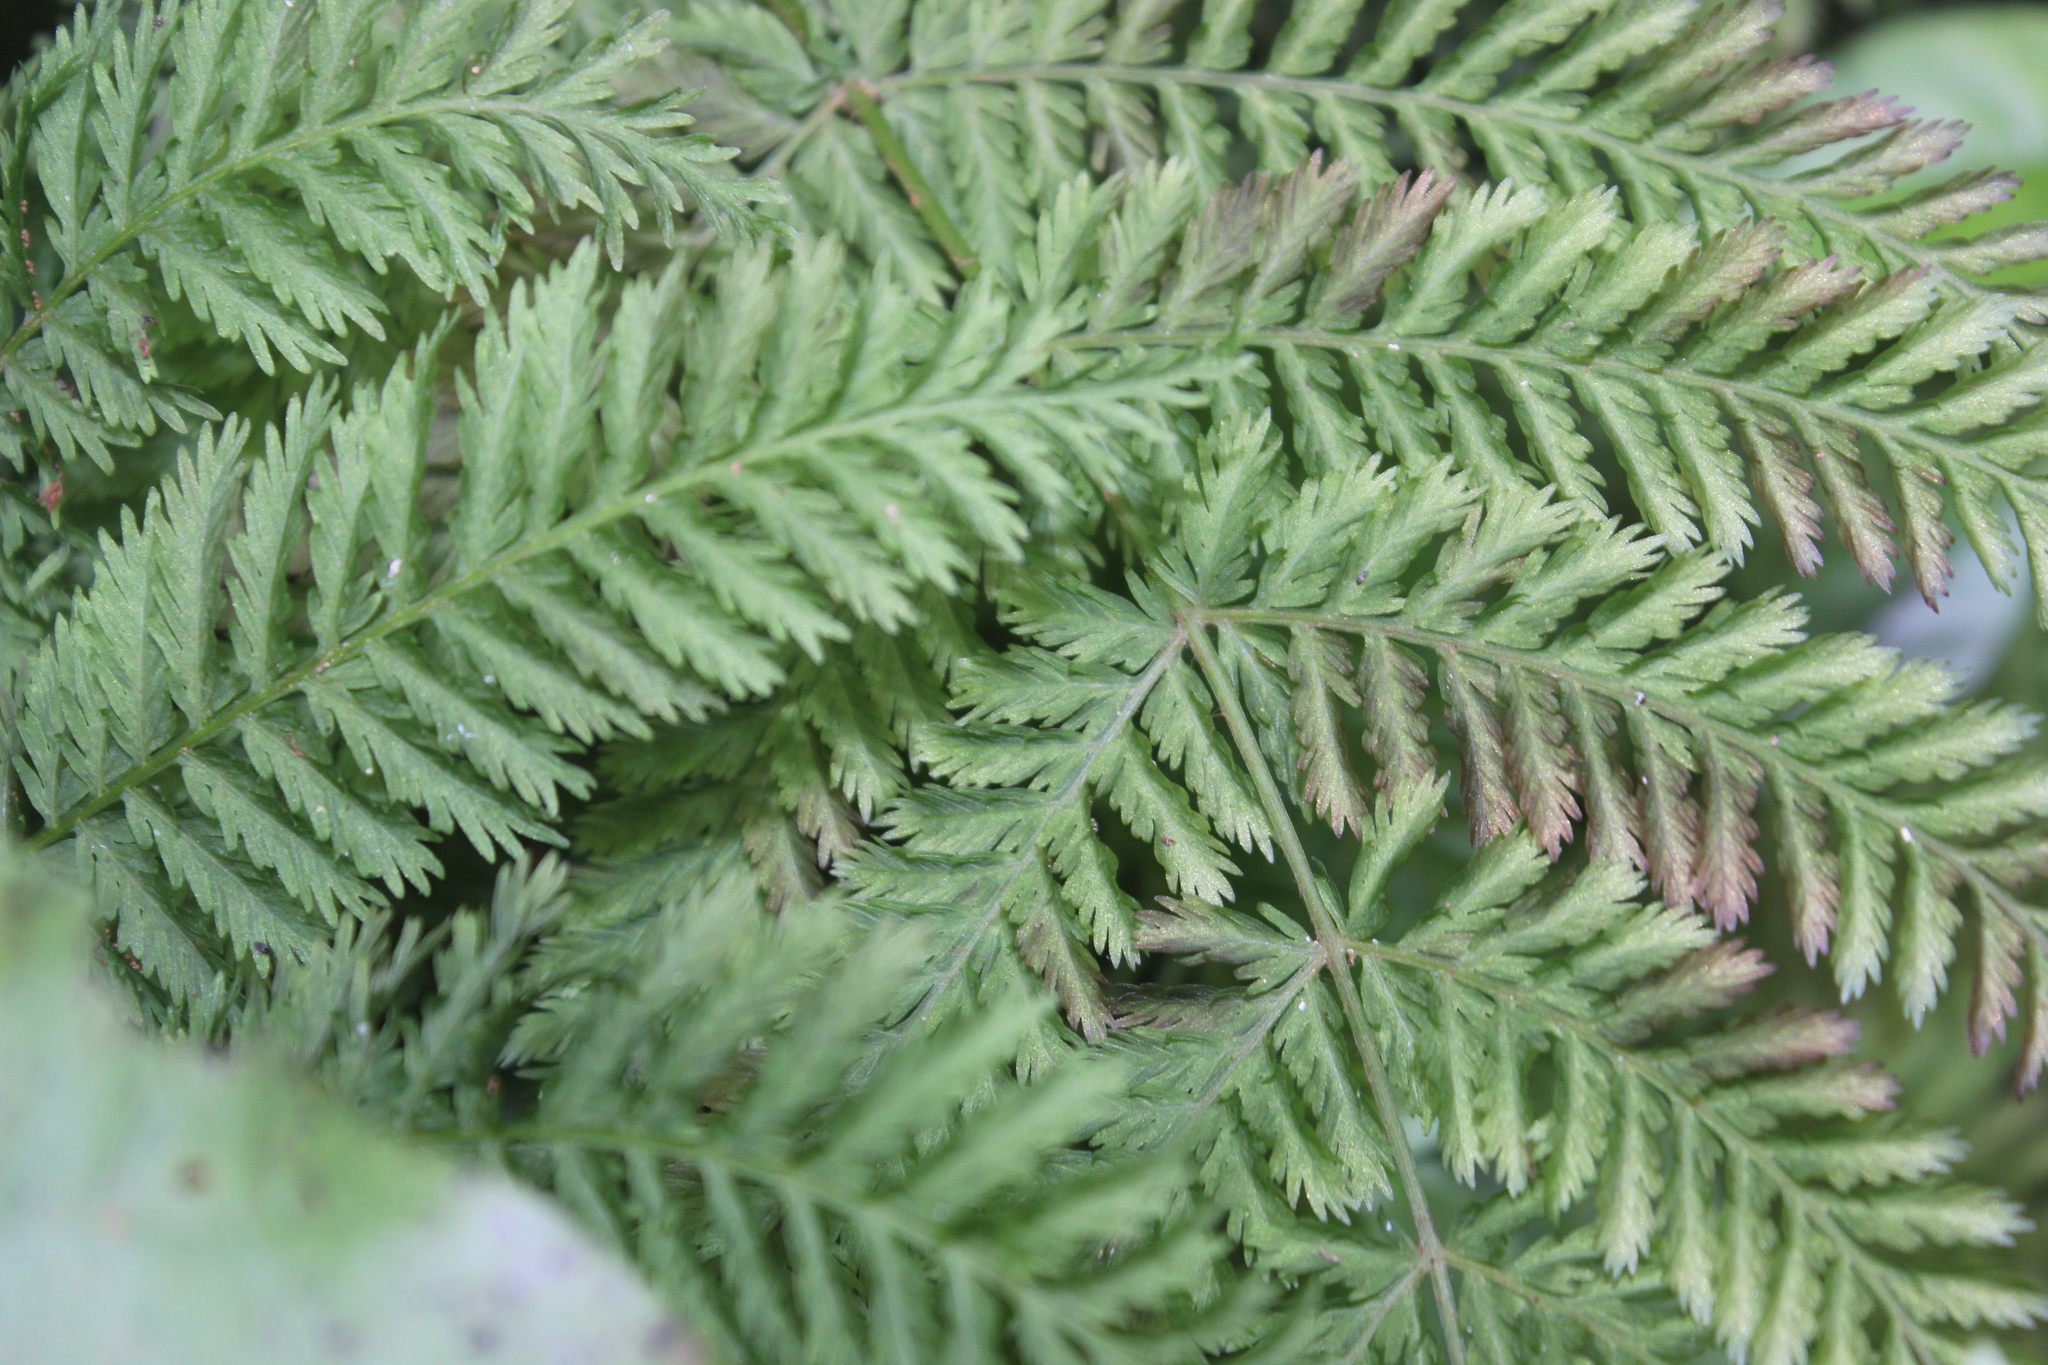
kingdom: Plantae
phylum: Tracheophyta
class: Polypodiopsida
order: Osmundales
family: Osmundaceae
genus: Leptopteris
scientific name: Leptopteris hymenophylloides
